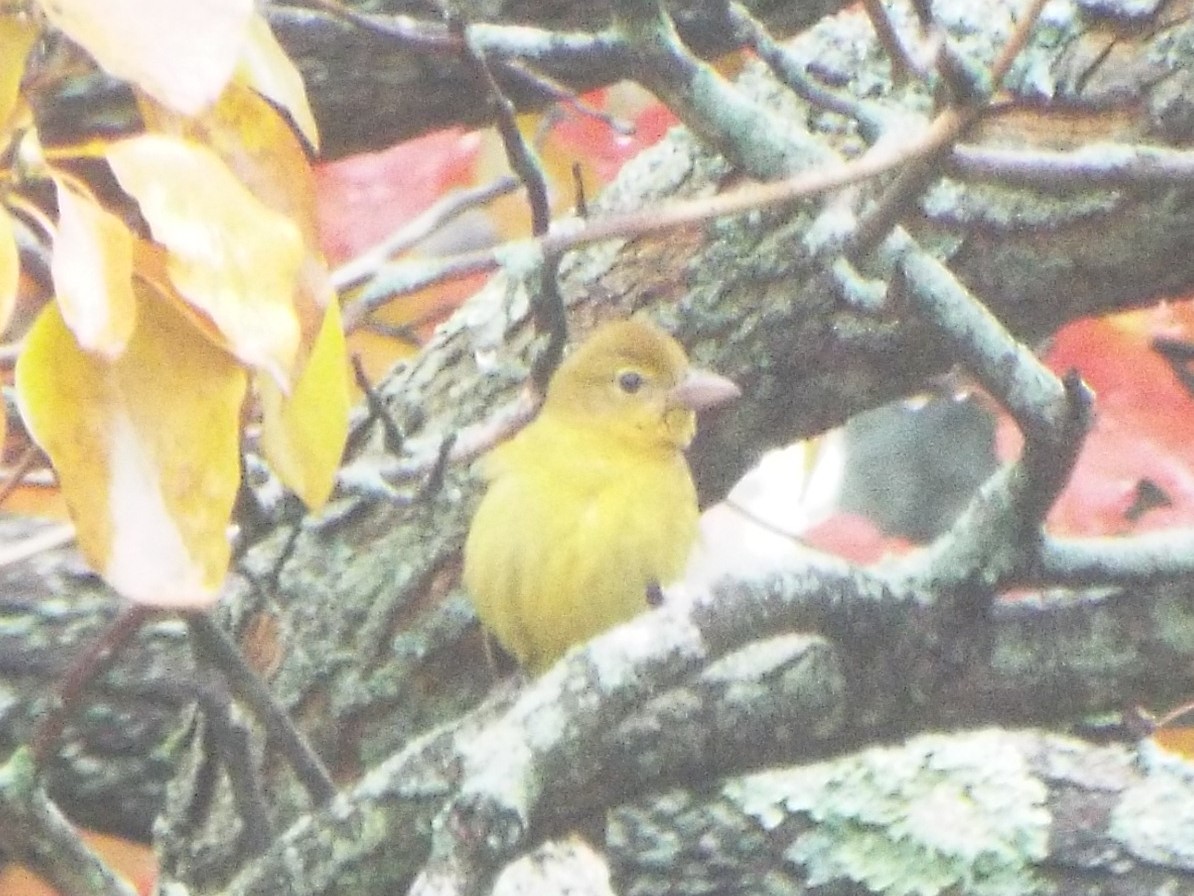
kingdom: Animalia
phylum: Chordata
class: Aves
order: Passeriformes
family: Cardinalidae
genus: Piranga
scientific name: Piranga rubra
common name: Summer tanager
